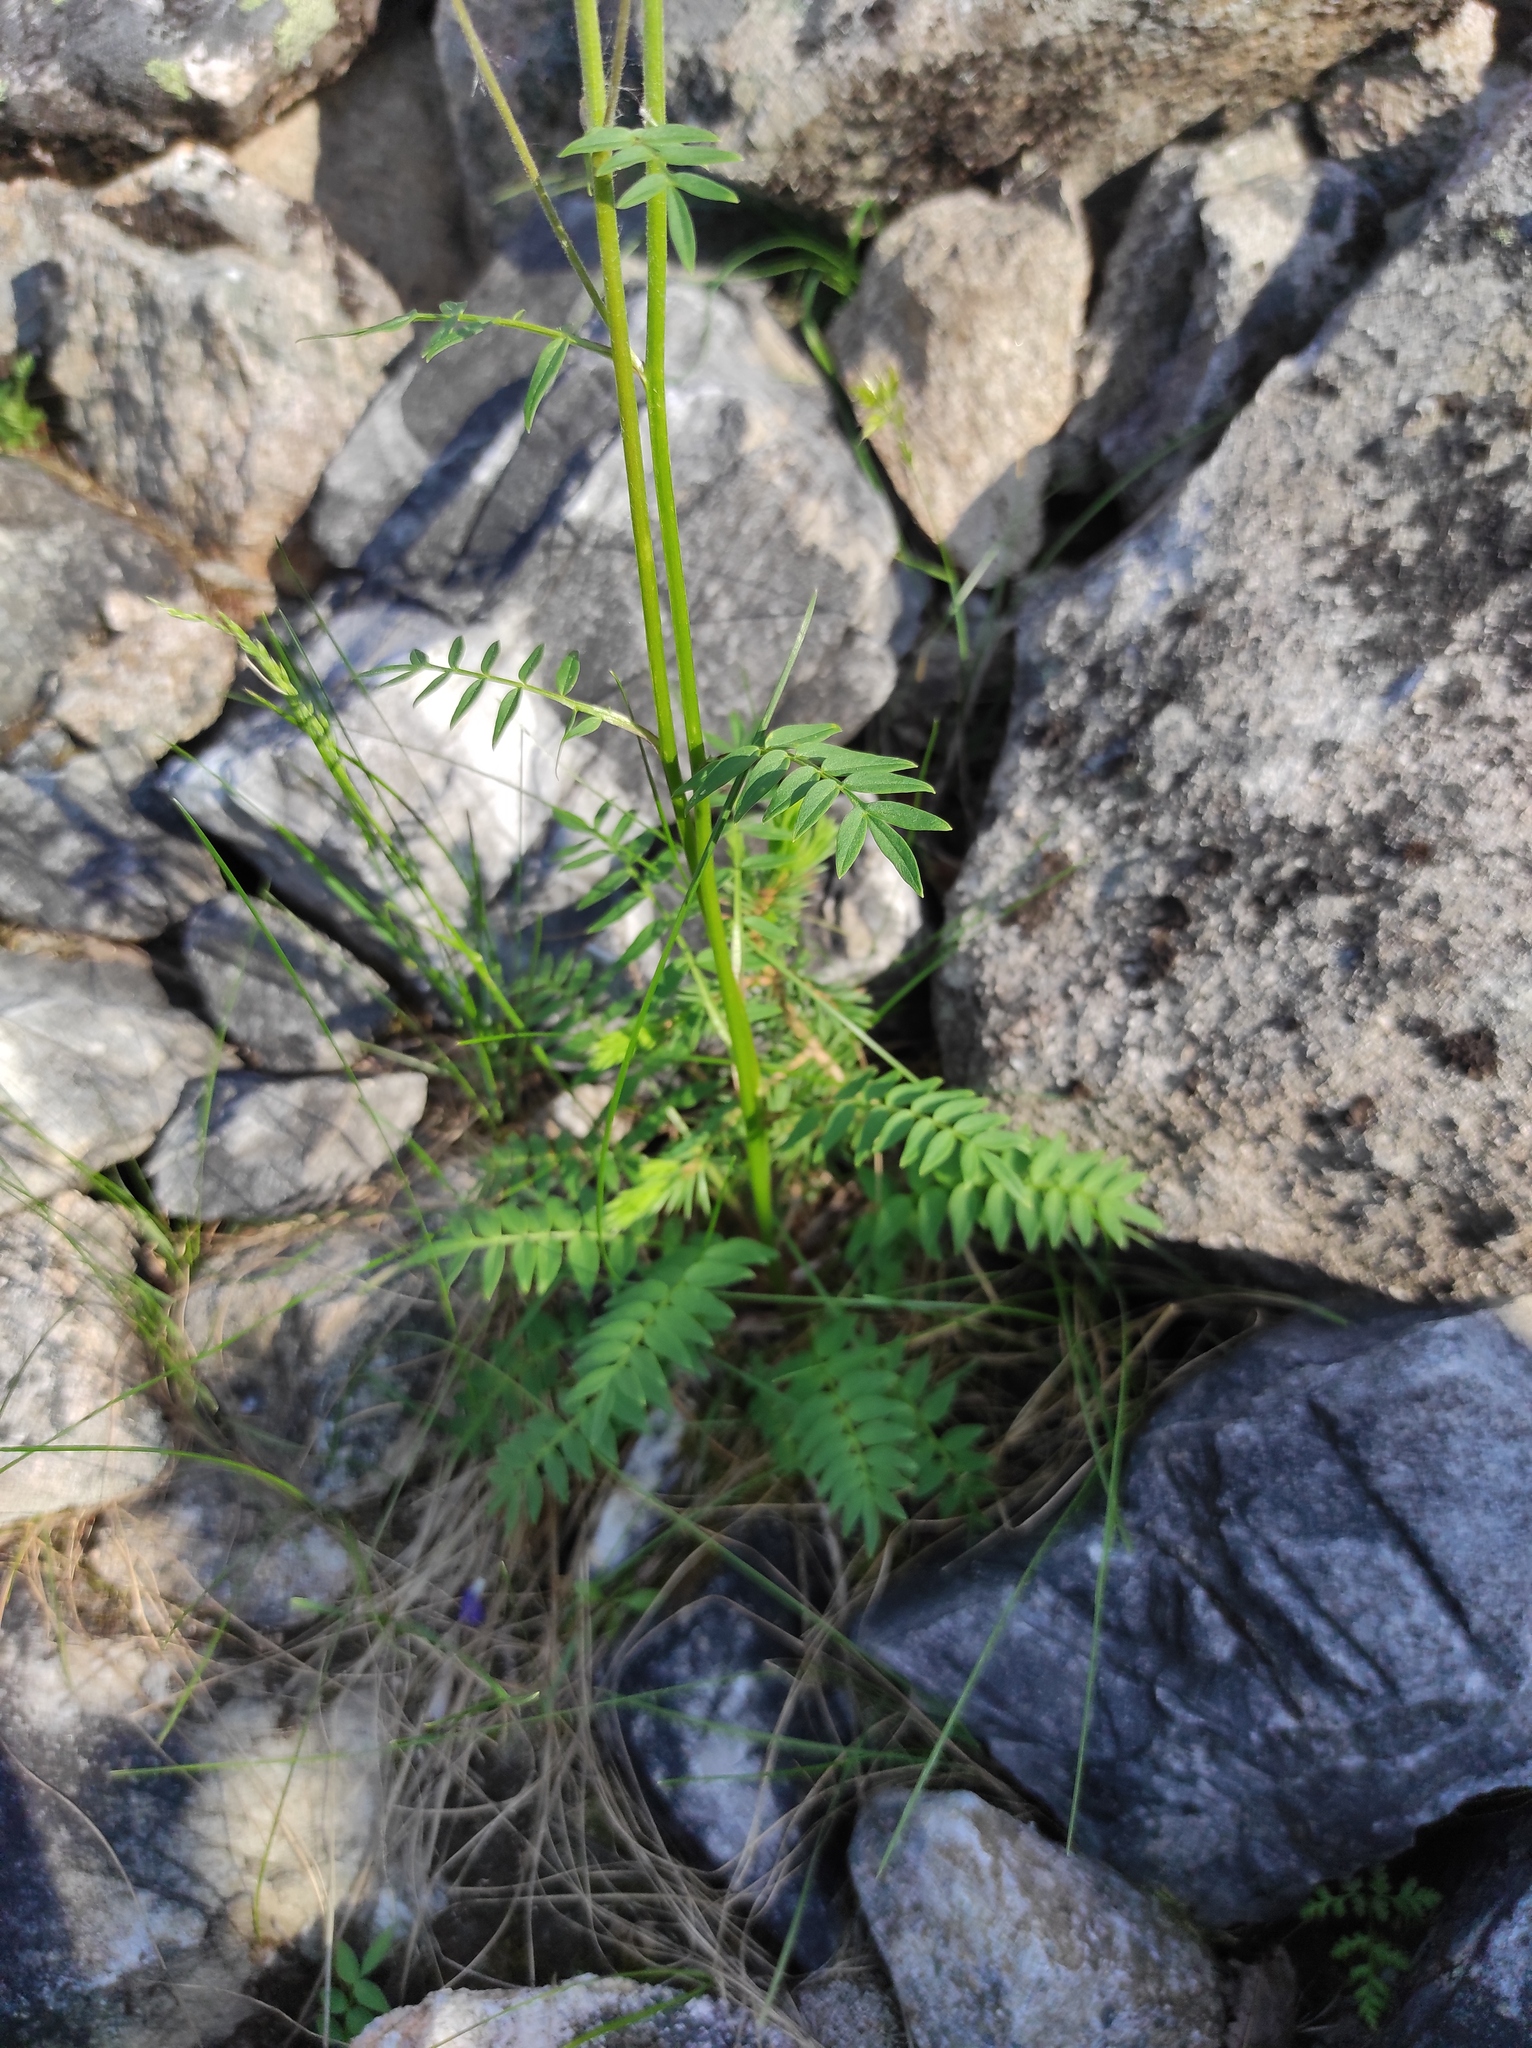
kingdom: Plantae
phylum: Tracheophyta
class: Magnoliopsida
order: Ericales
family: Polemoniaceae
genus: Polemonium
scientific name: Polemonium acutiflorum
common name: Tall jacob's-ladder
